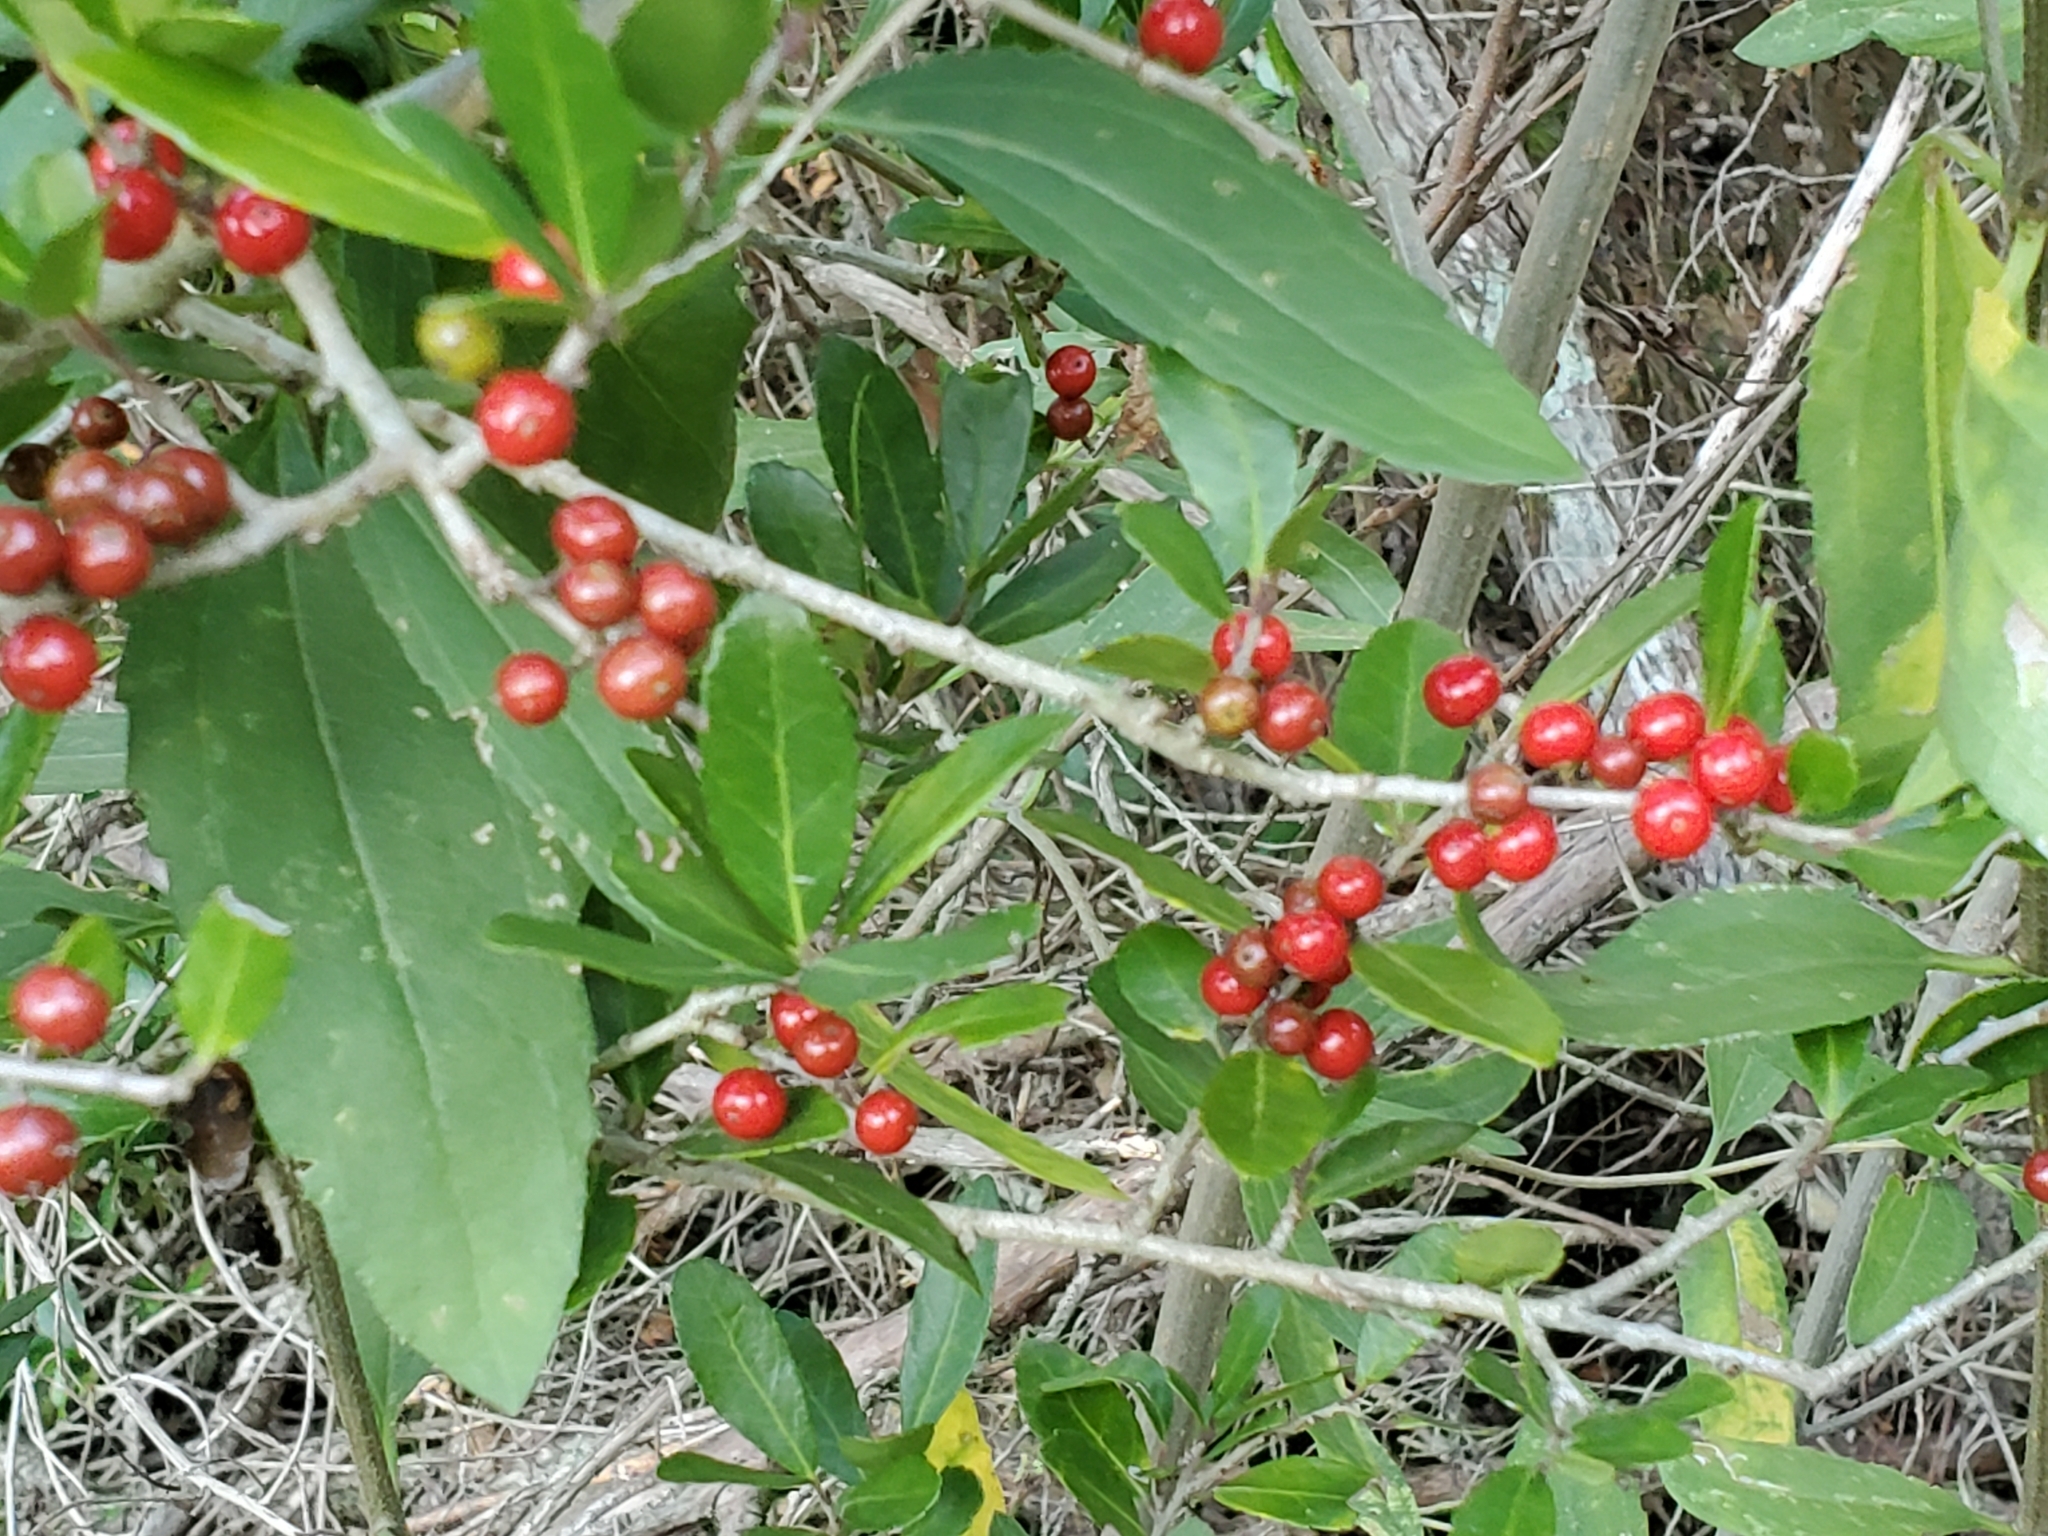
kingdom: Plantae
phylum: Tracheophyta
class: Magnoliopsida
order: Aquifoliales
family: Aquifoliaceae
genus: Ilex
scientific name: Ilex vomitoria
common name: Yaupon holly
